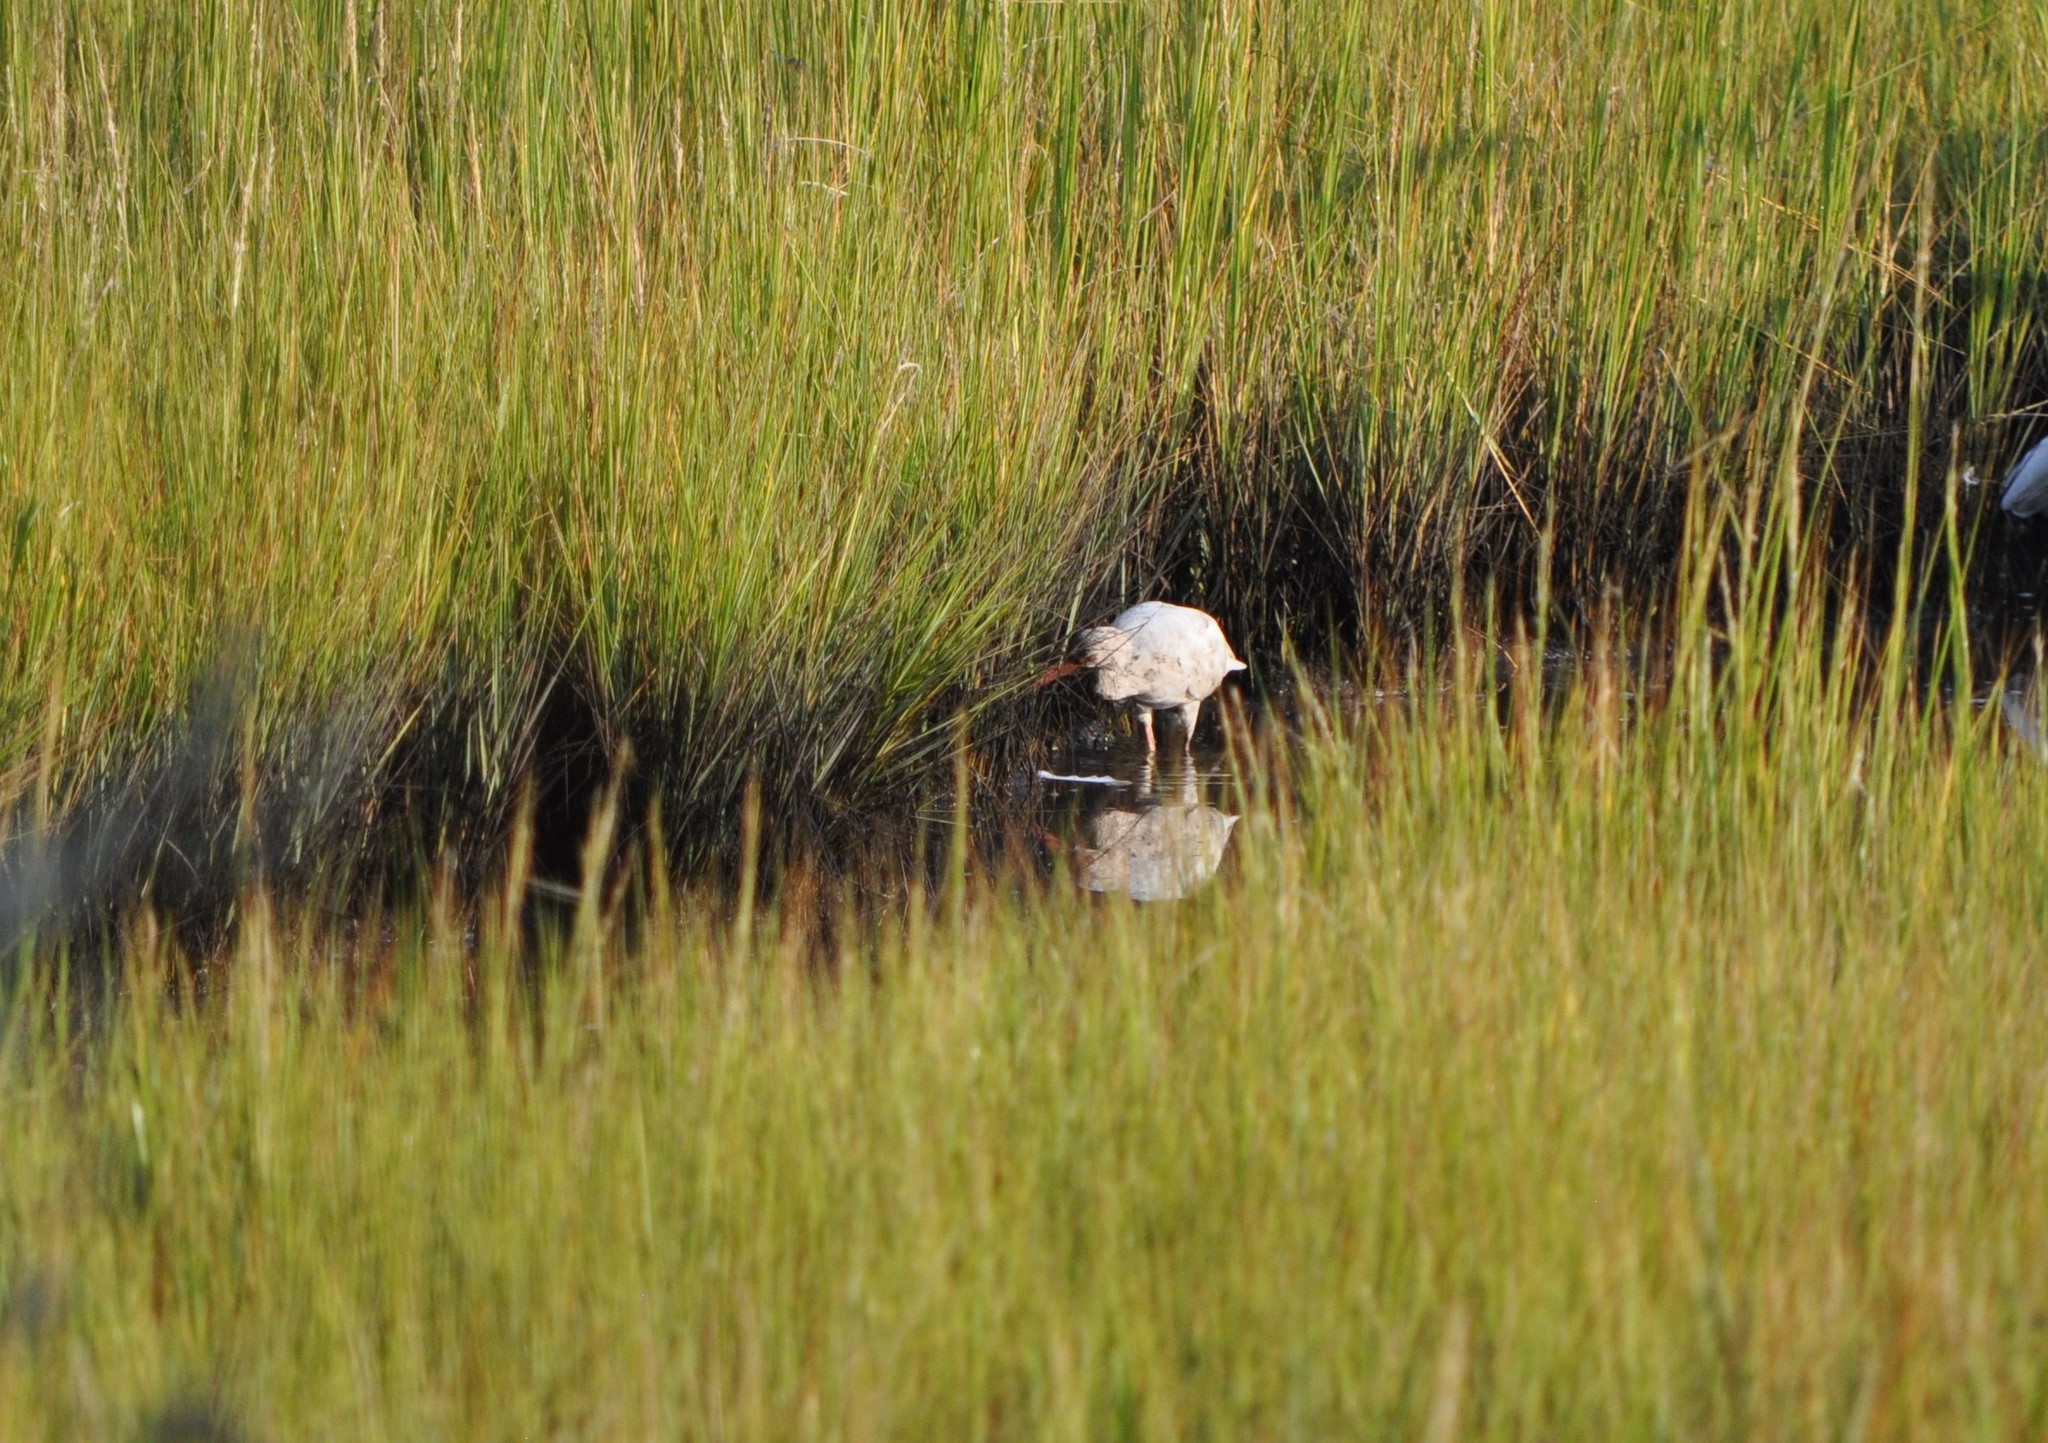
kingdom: Animalia
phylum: Chordata
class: Aves
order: Pelecaniformes
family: Threskiornithidae
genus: Eudocimus
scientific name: Eudocimus albus
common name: White ibis
